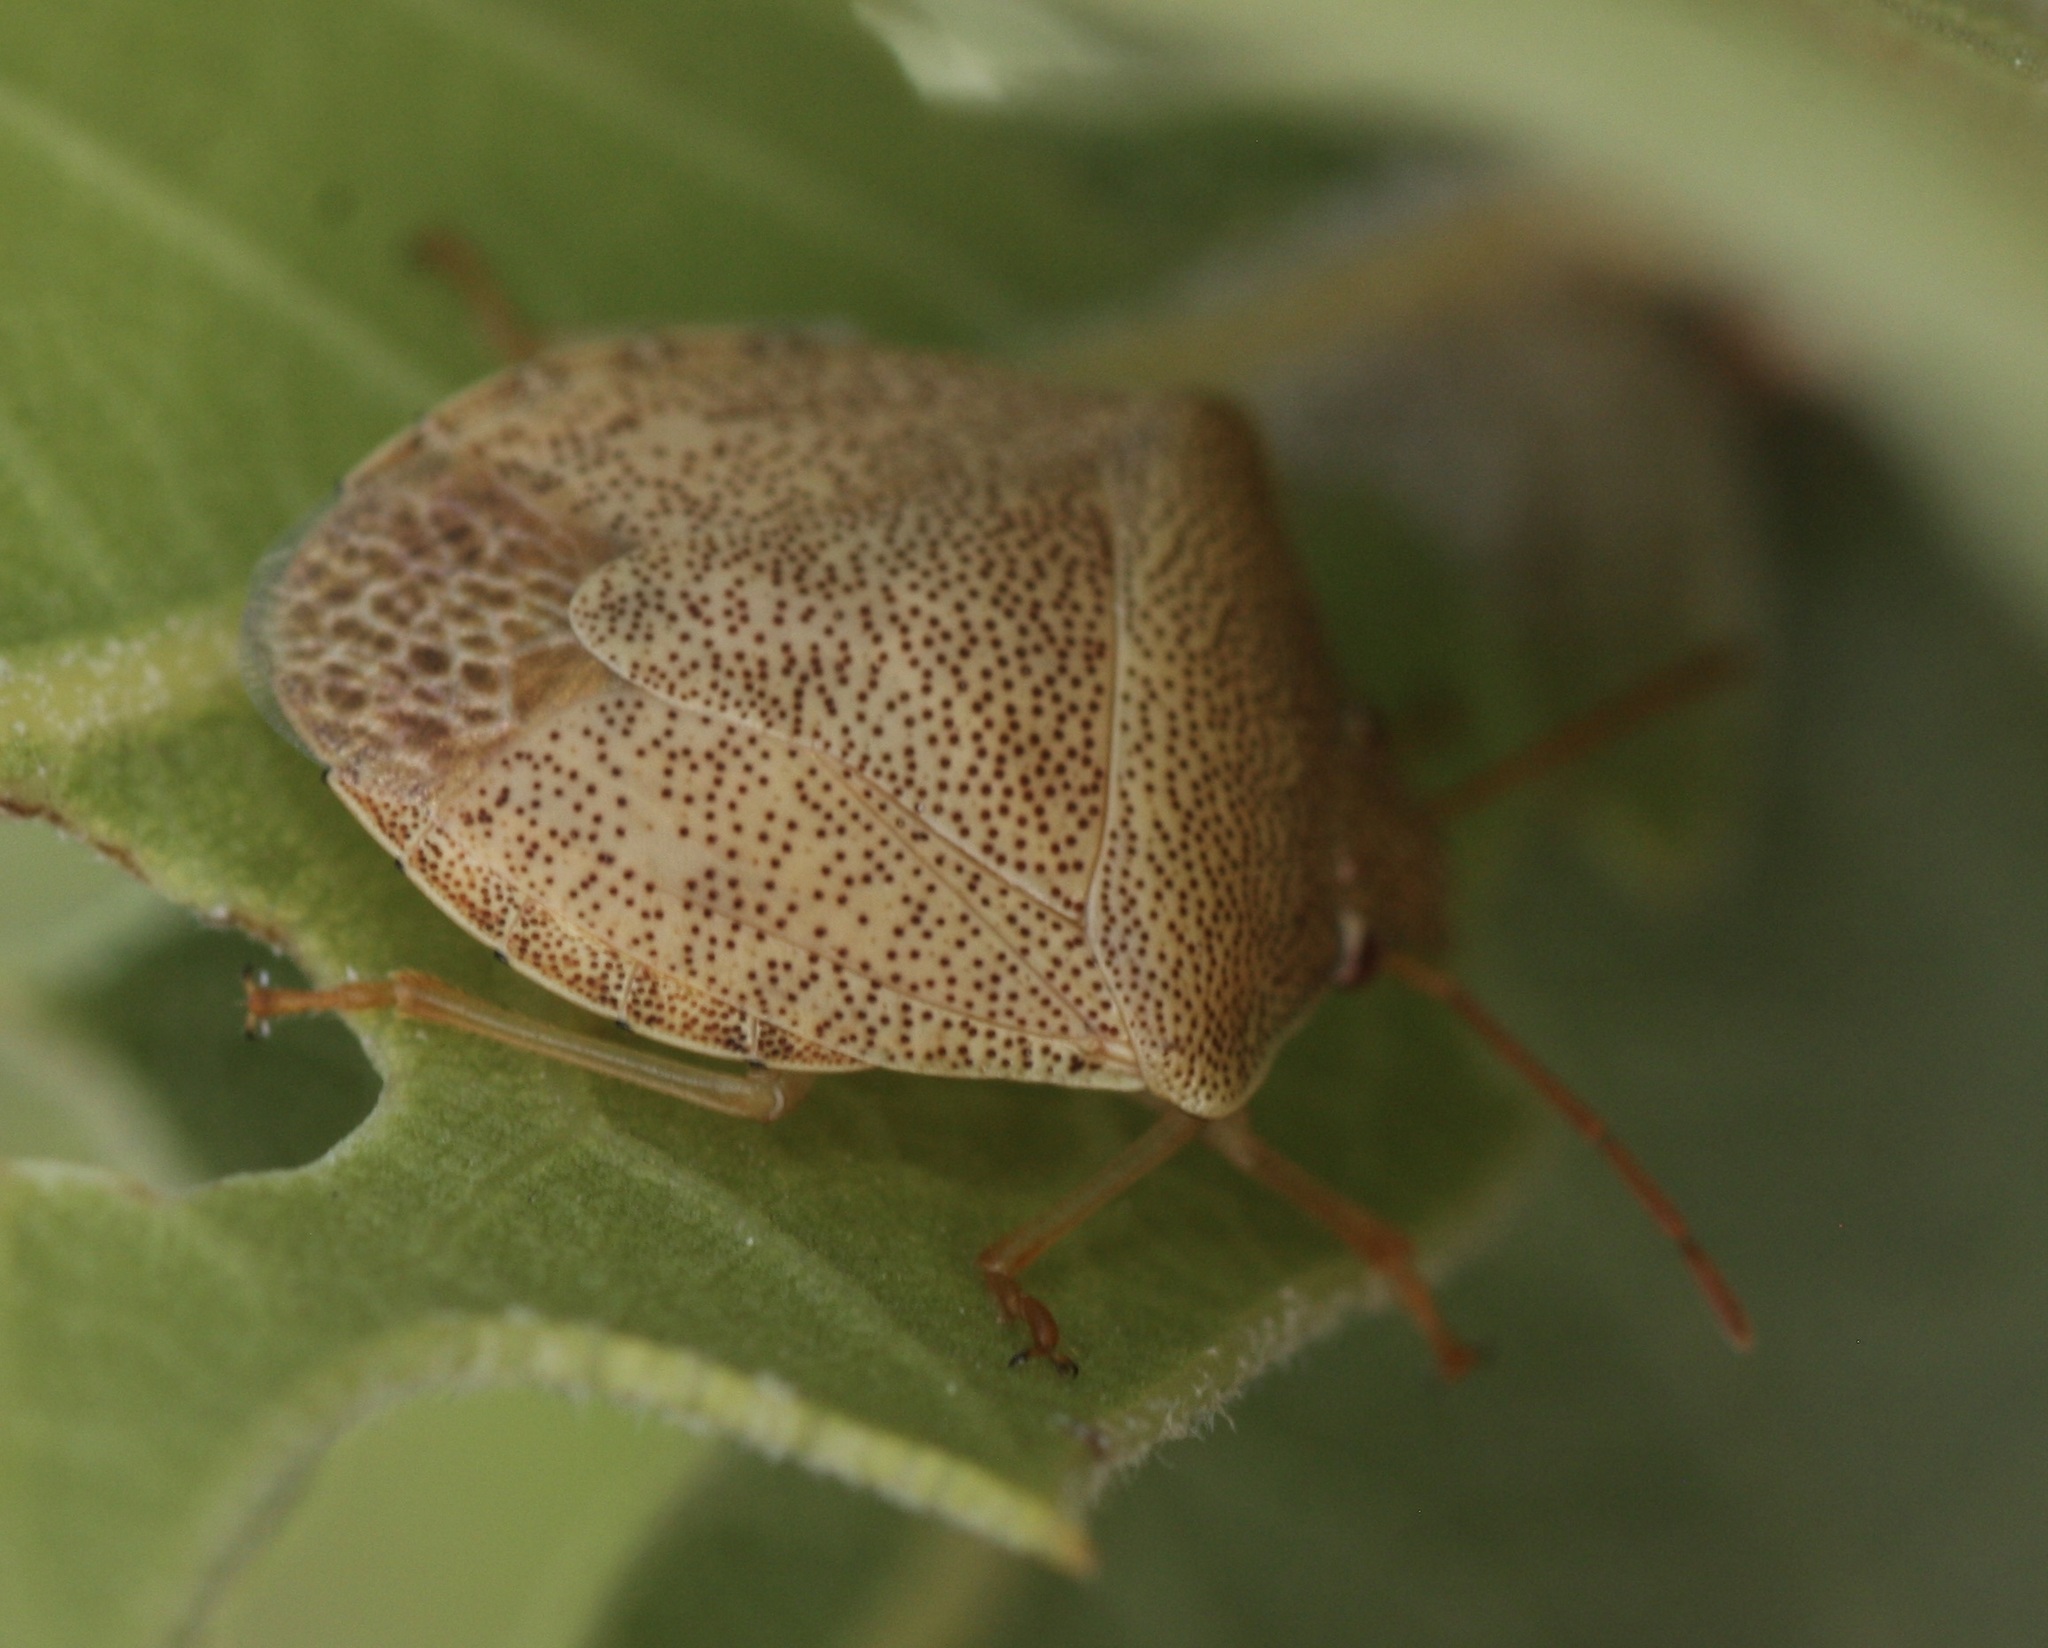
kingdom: Animalia
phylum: Arthropoda
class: Insecta
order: Hemiptera
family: Pentatomidae
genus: Dendrocoris
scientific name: Dendrocoris reticulatus
